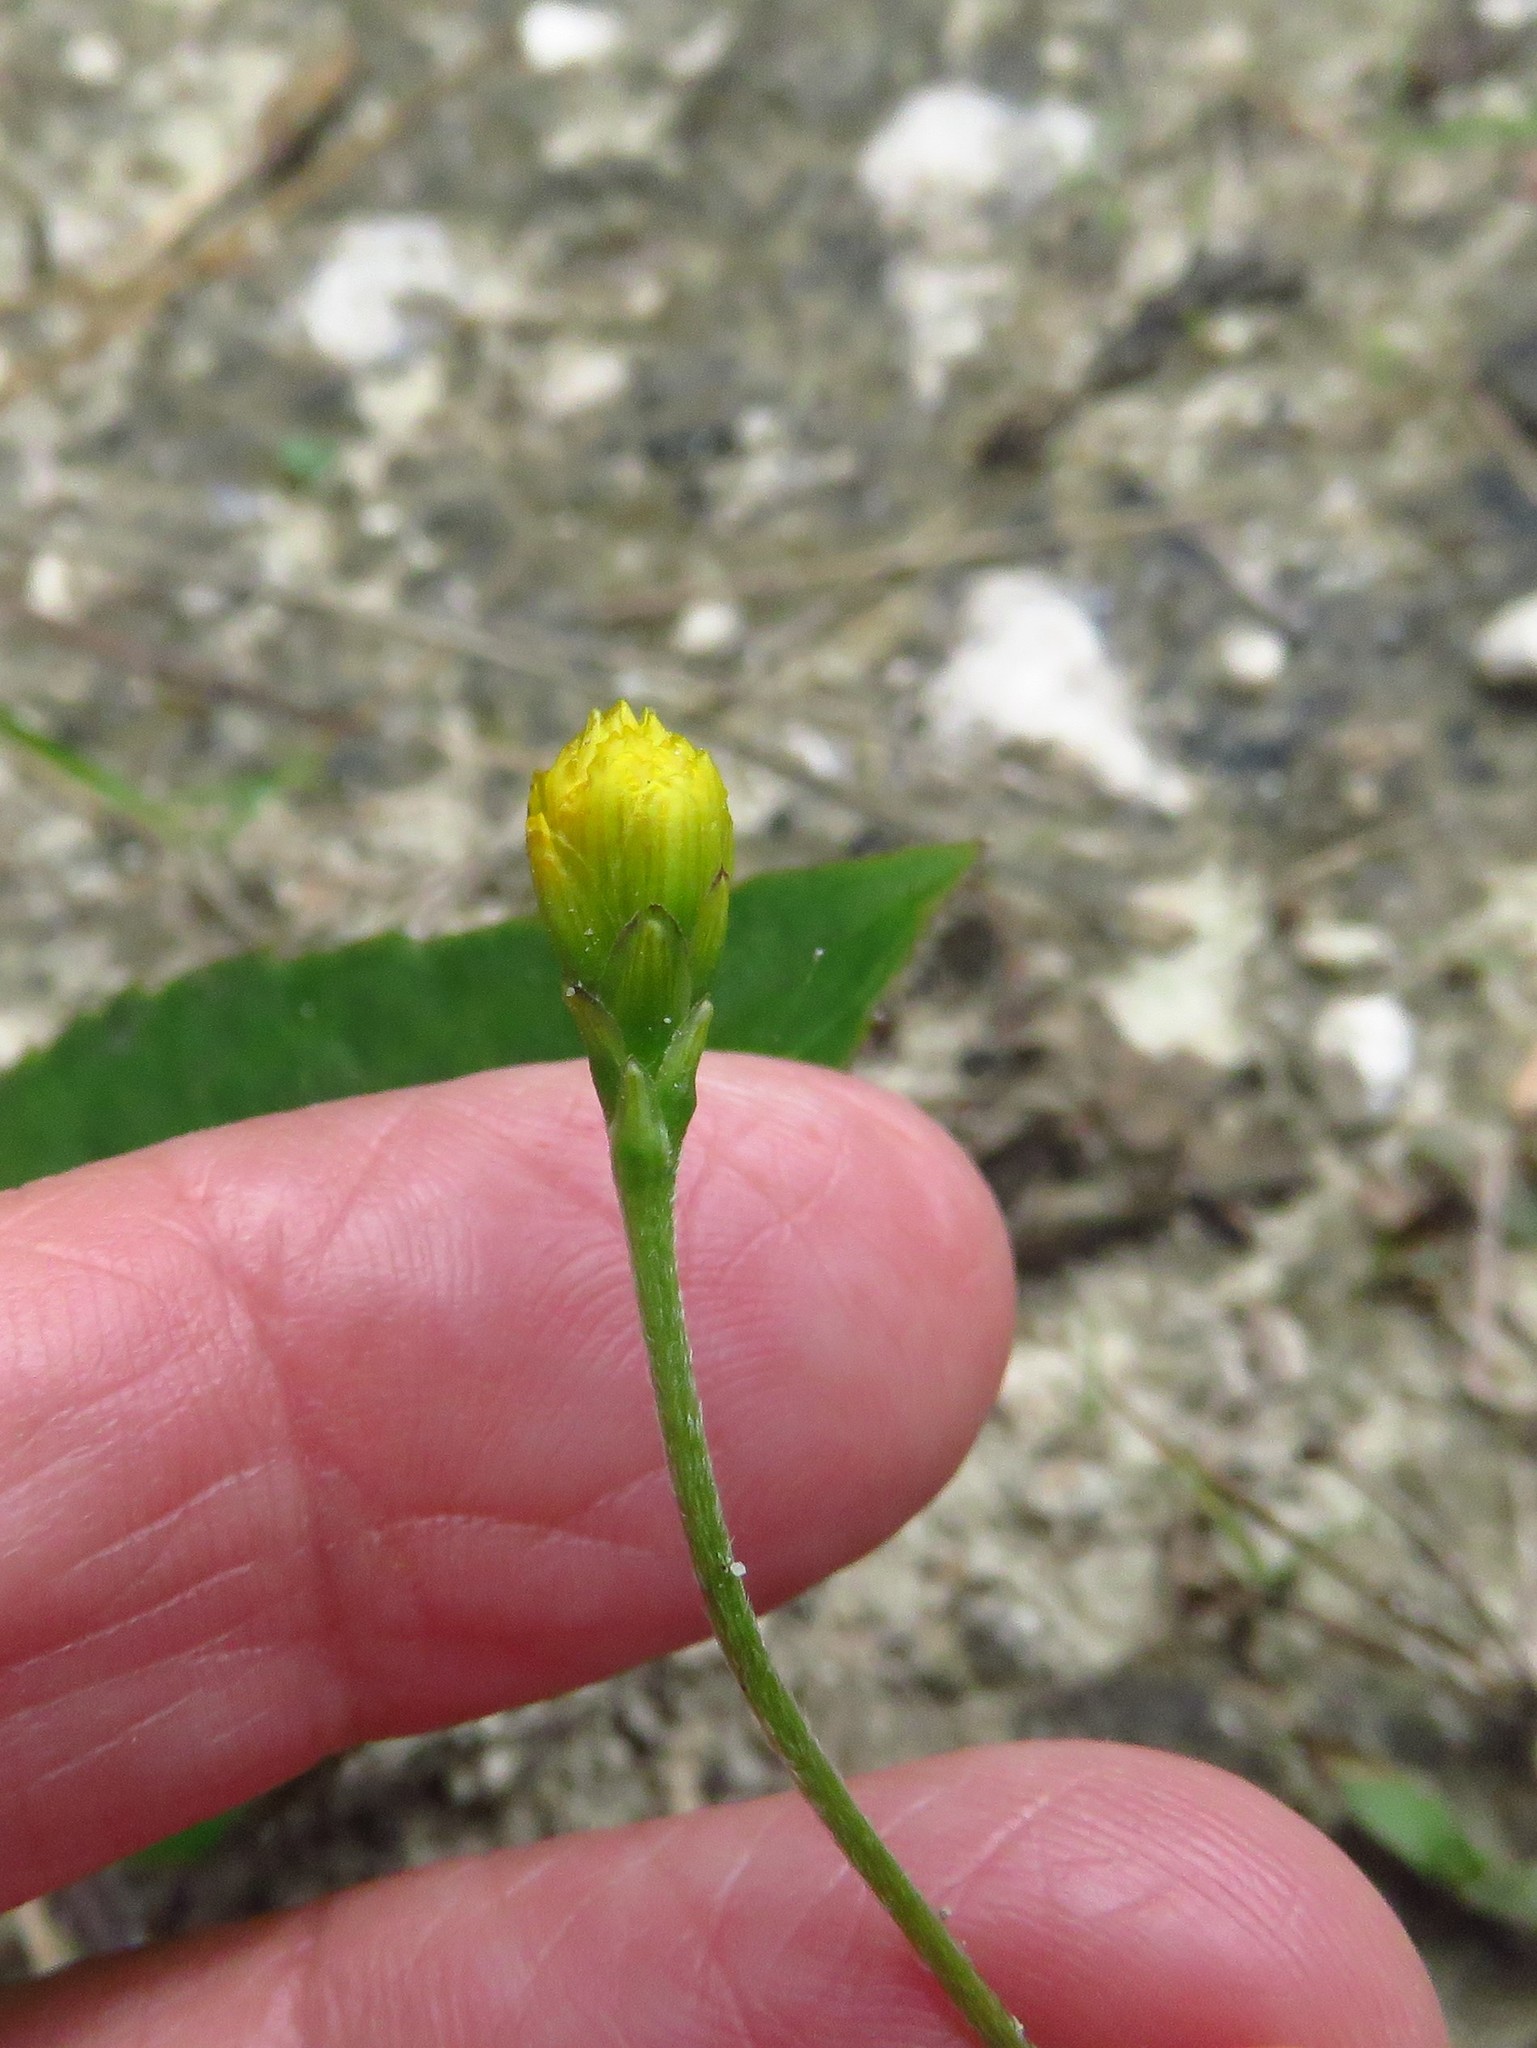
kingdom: Plantae
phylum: Tracheophyta
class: Magnoliopsida
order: Asterales
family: Asteraceae
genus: Goldmanella
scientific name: Goldmanella sarmentosa
